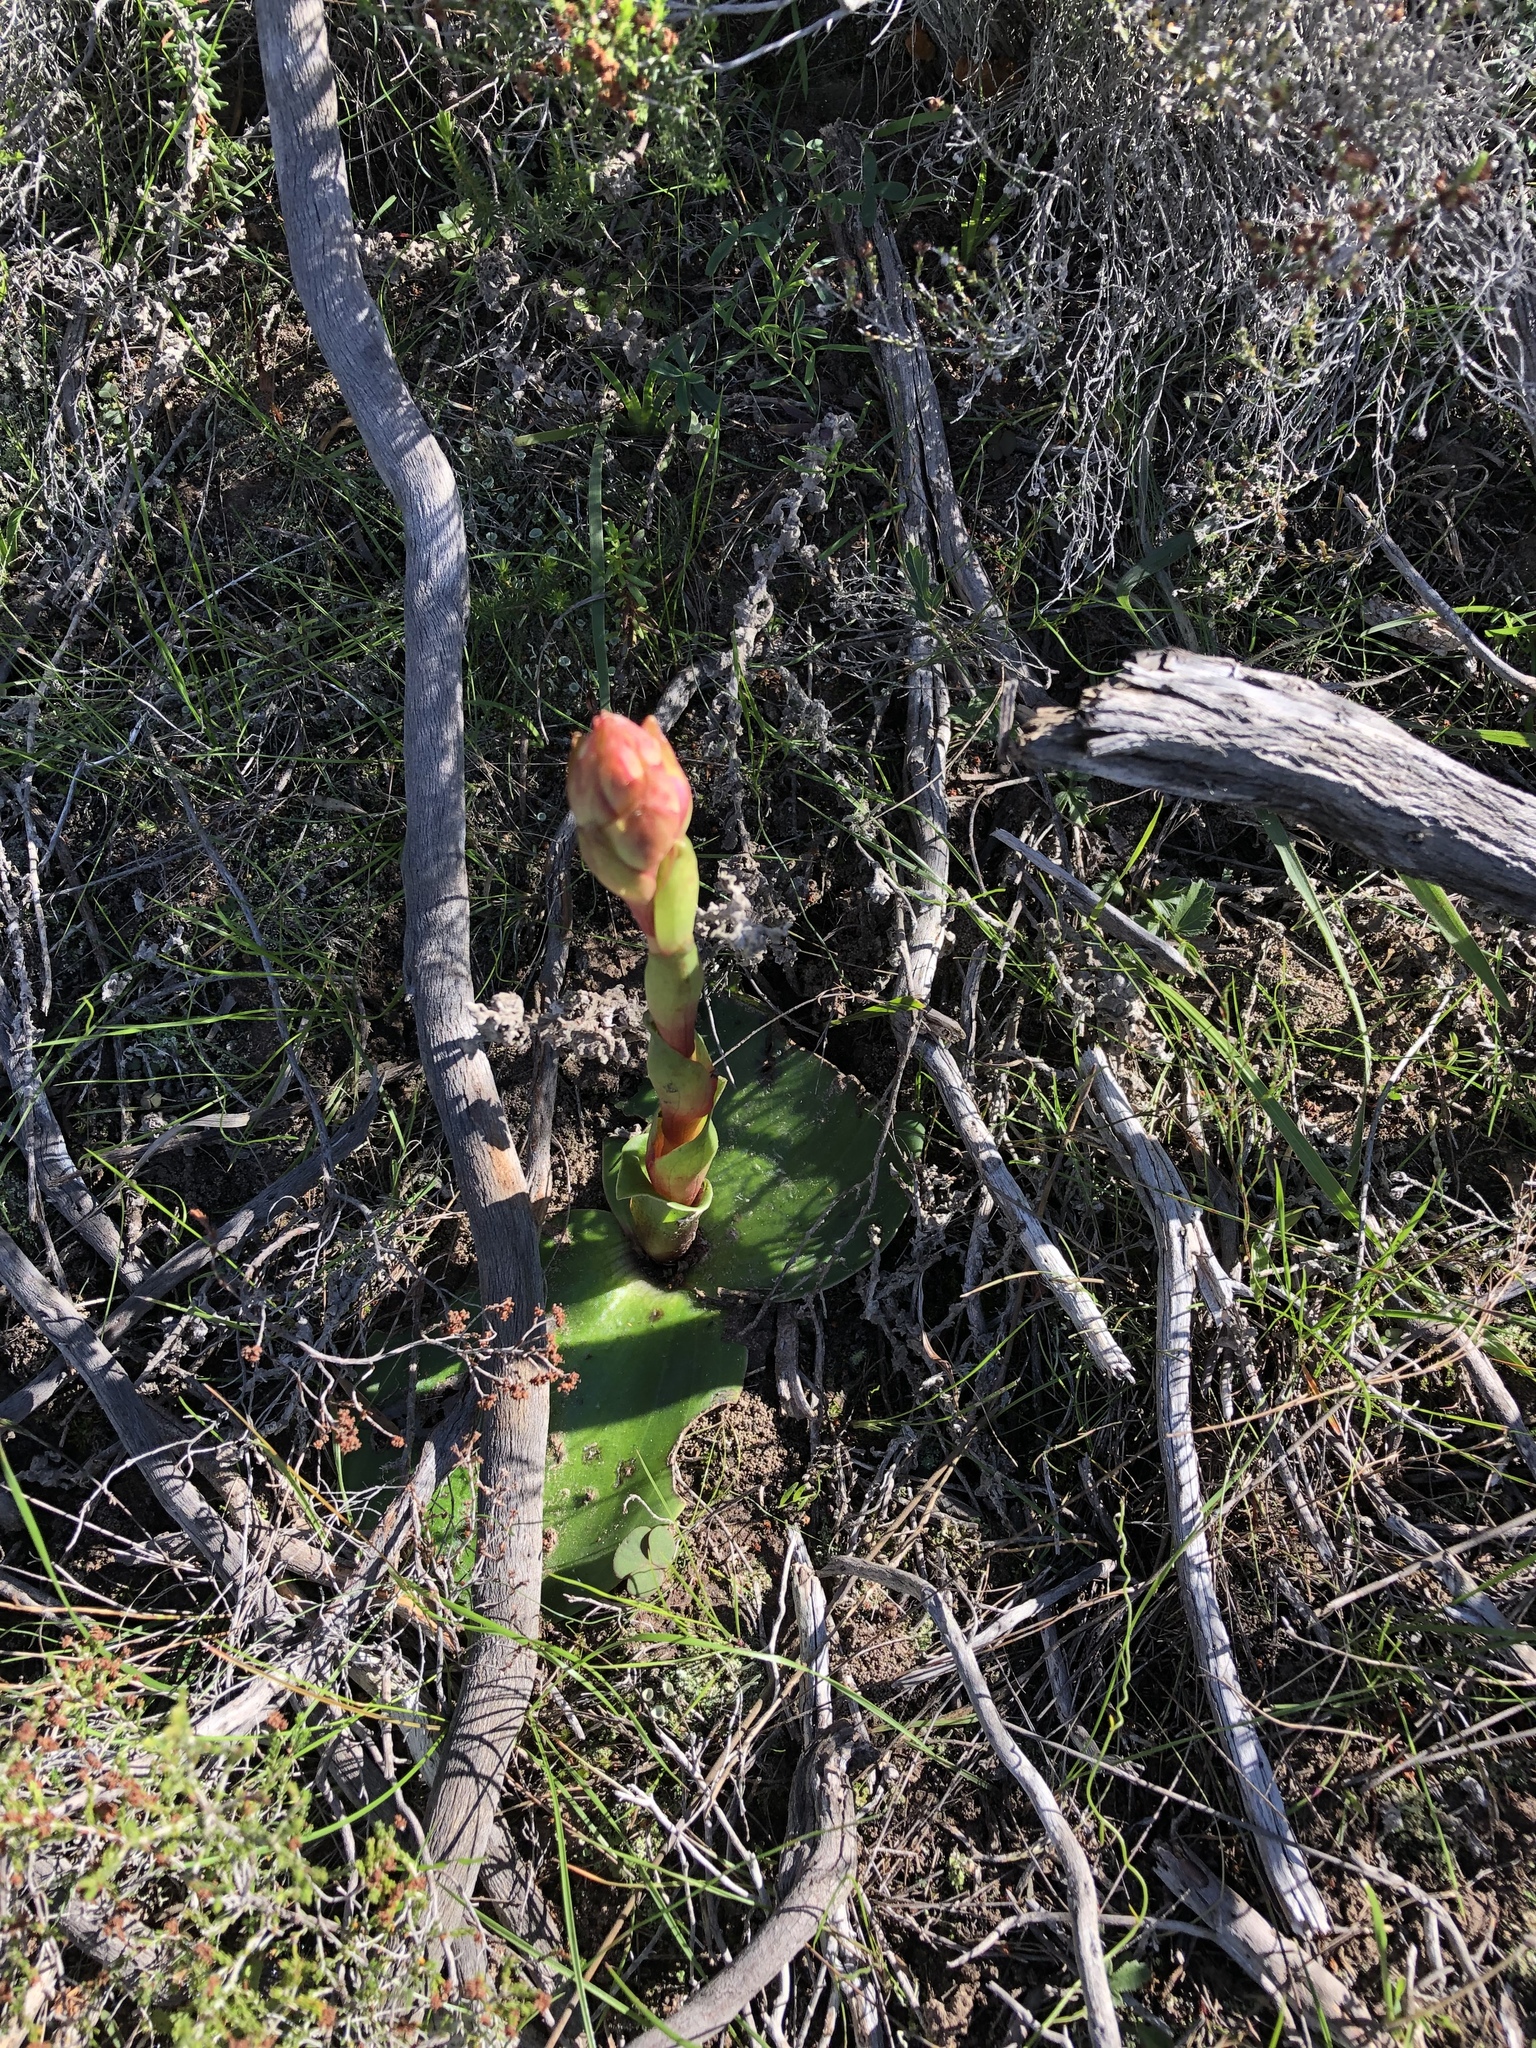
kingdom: Plantae
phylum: Tracheophyta
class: Liliopsida
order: Asparagales
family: Orchidaceae
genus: Satyrium
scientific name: Satyrium muticum
